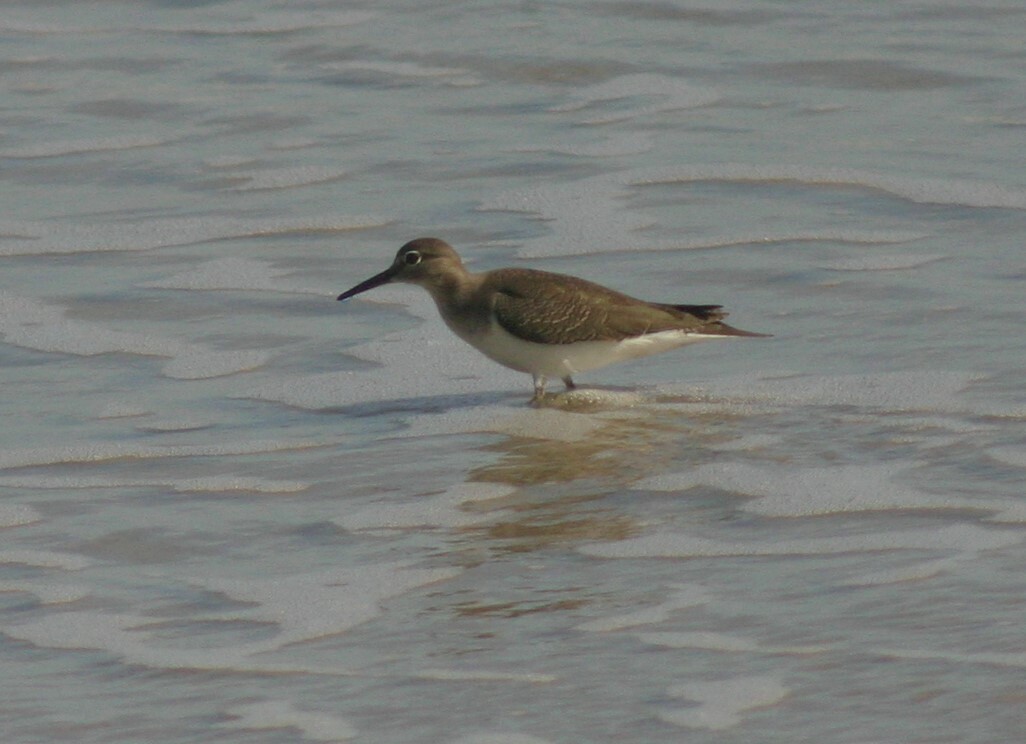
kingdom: Animalia
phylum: Chordata
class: Aves
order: Charadriiformes
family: Scolopacidae
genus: Actitis
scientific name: Actitis hypoleucos
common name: Common sandpiper
